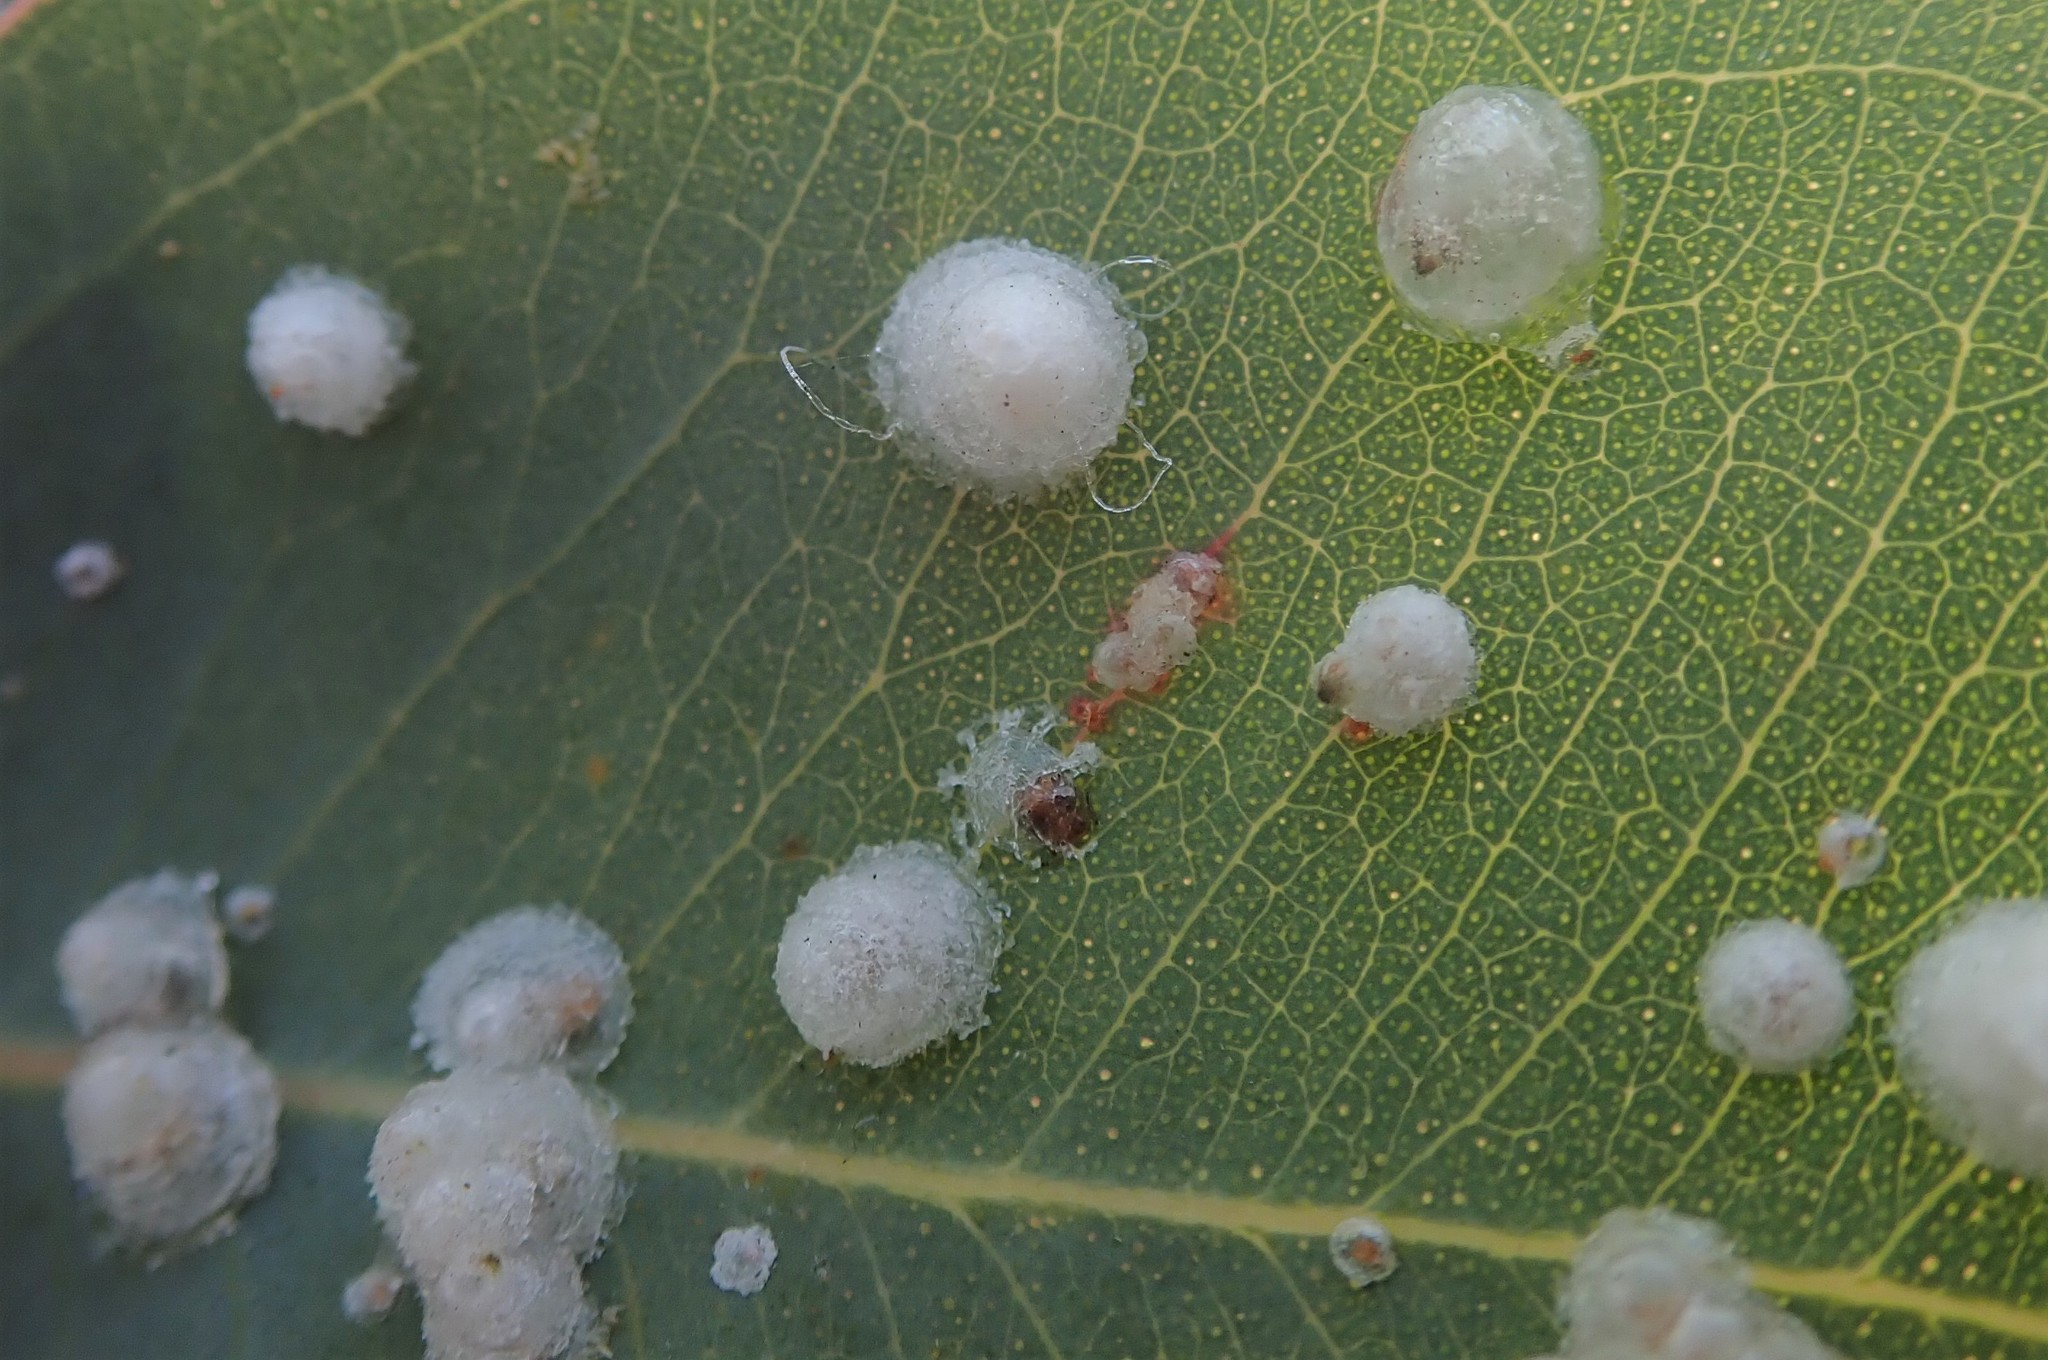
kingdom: Animalia
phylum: Arthropoda
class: Insecta
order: Hemiptera
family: Aphalaridae
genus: Glycaspis
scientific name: Glycaspis brimblecombei
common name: Red gum lerp psyllid
